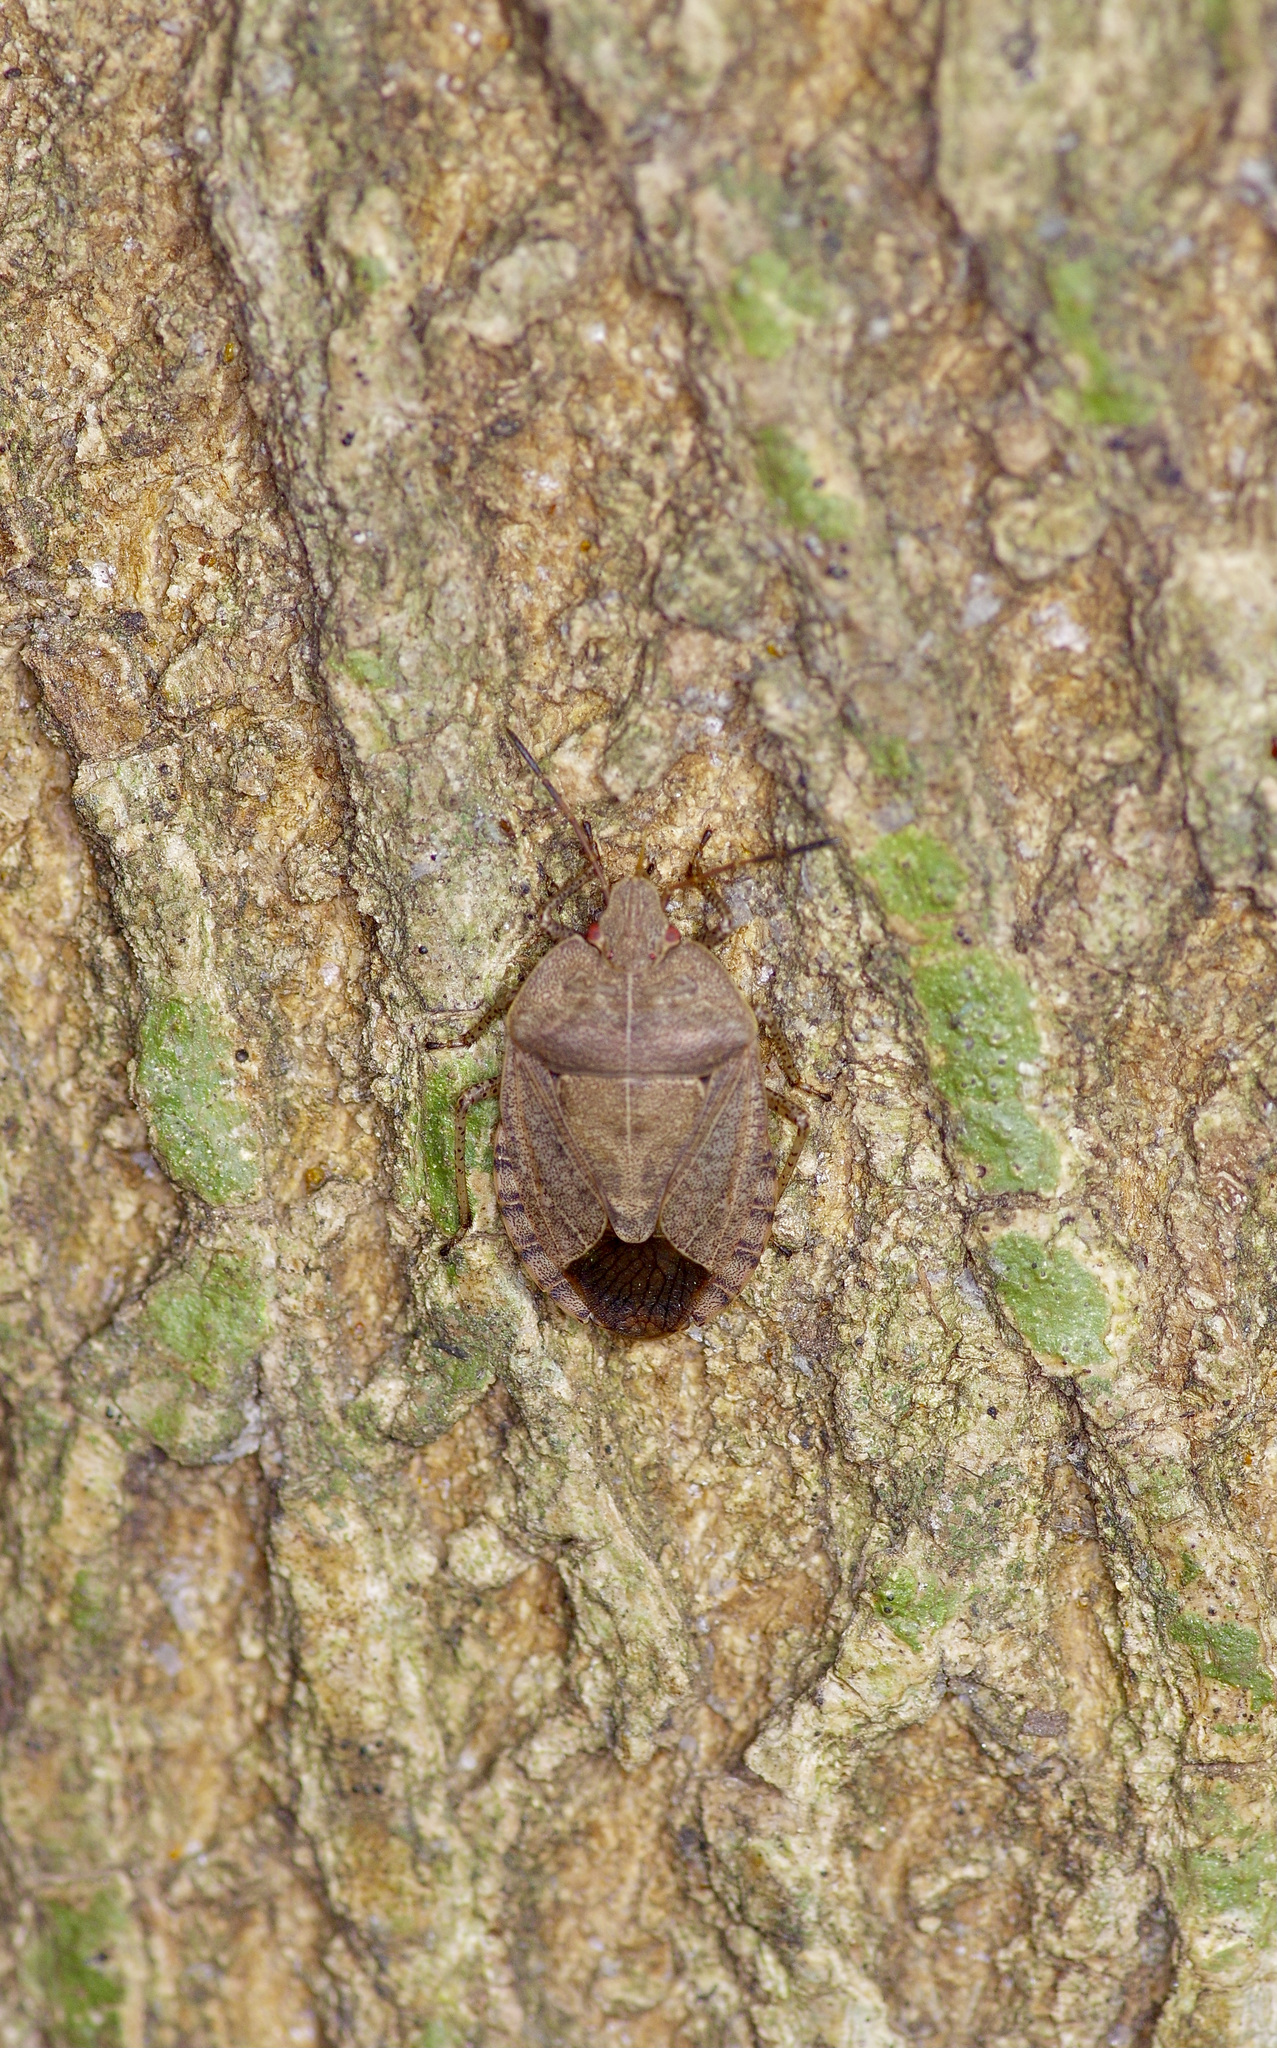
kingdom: Animalia
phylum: Arthropoda
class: Insecta
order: Hemiptera
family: Pentatomidae
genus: Menecles
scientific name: Menecles insertus
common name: Elf shoe stink bug
